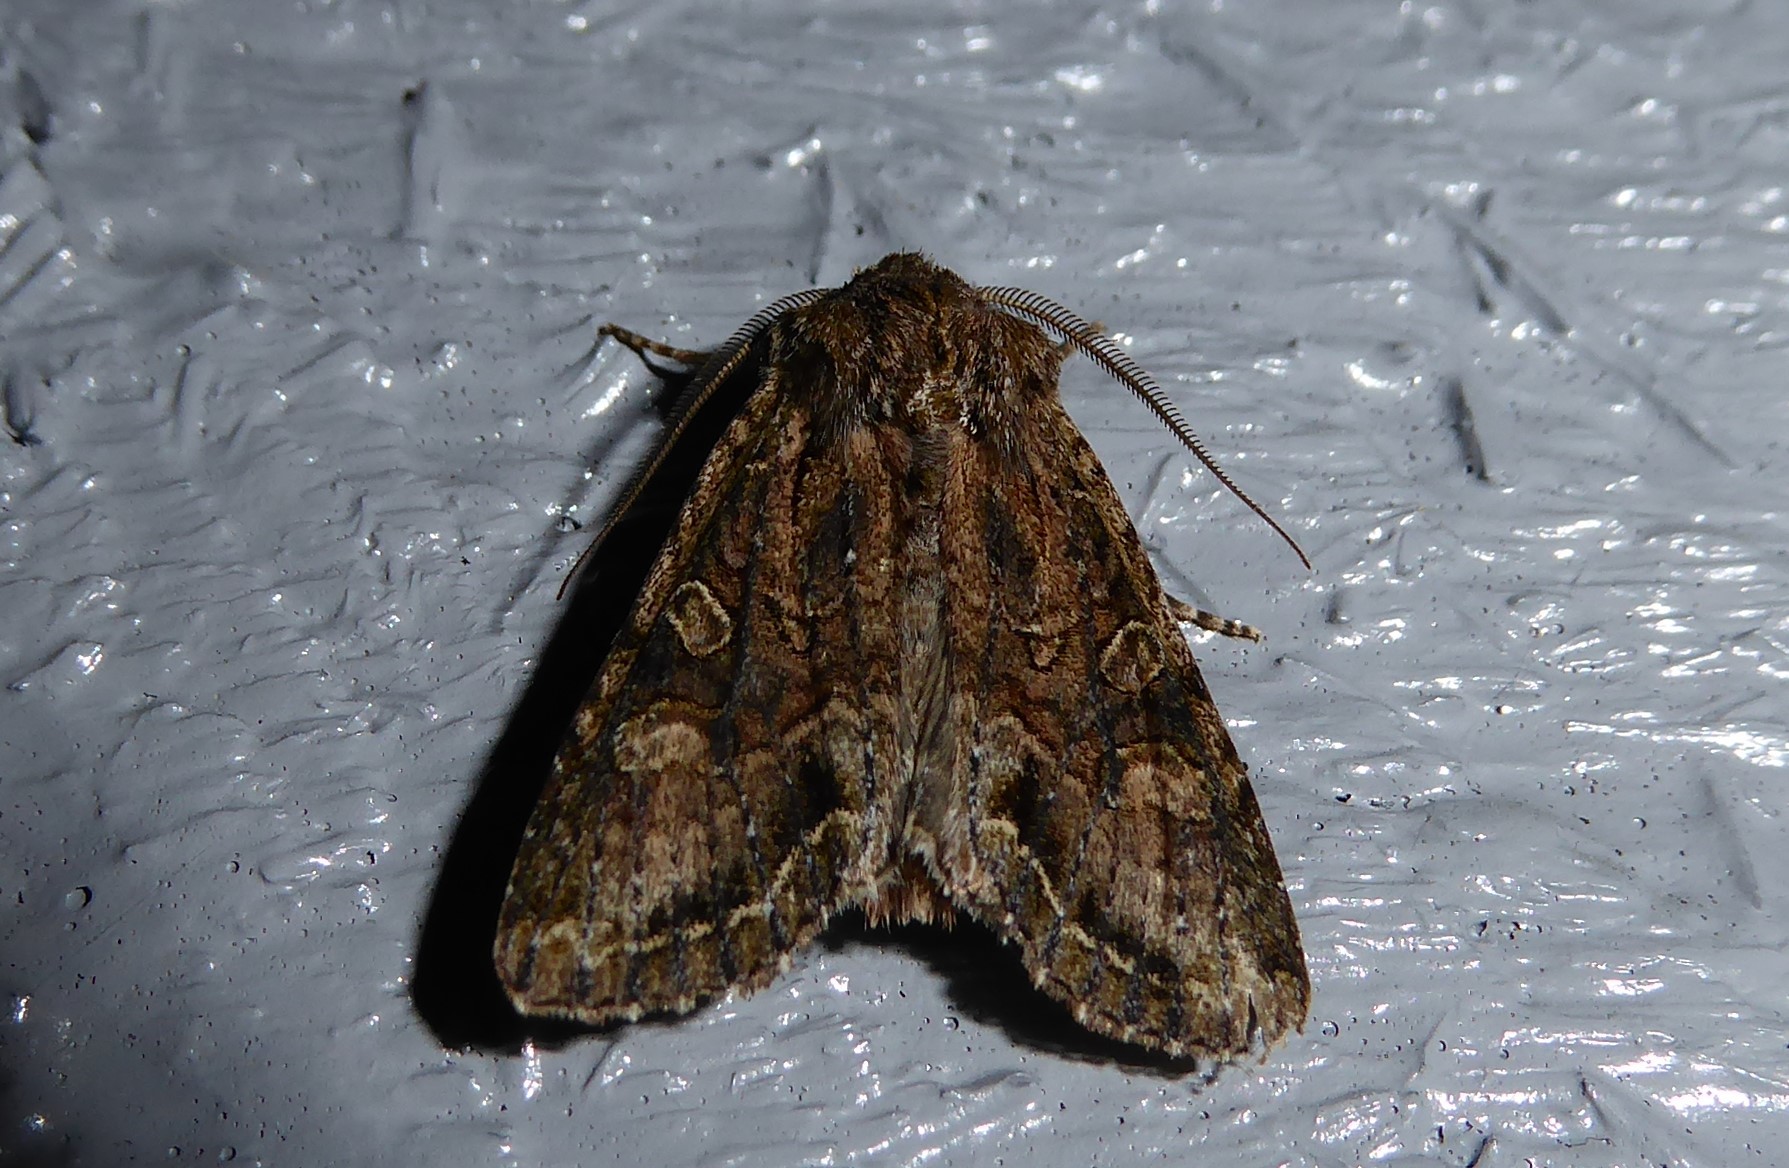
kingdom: Animalia
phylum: Arthropoda
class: Insecta
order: Lepidoptera
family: Noctuidae
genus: Ichneutica
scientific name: Ichneutica mutans
